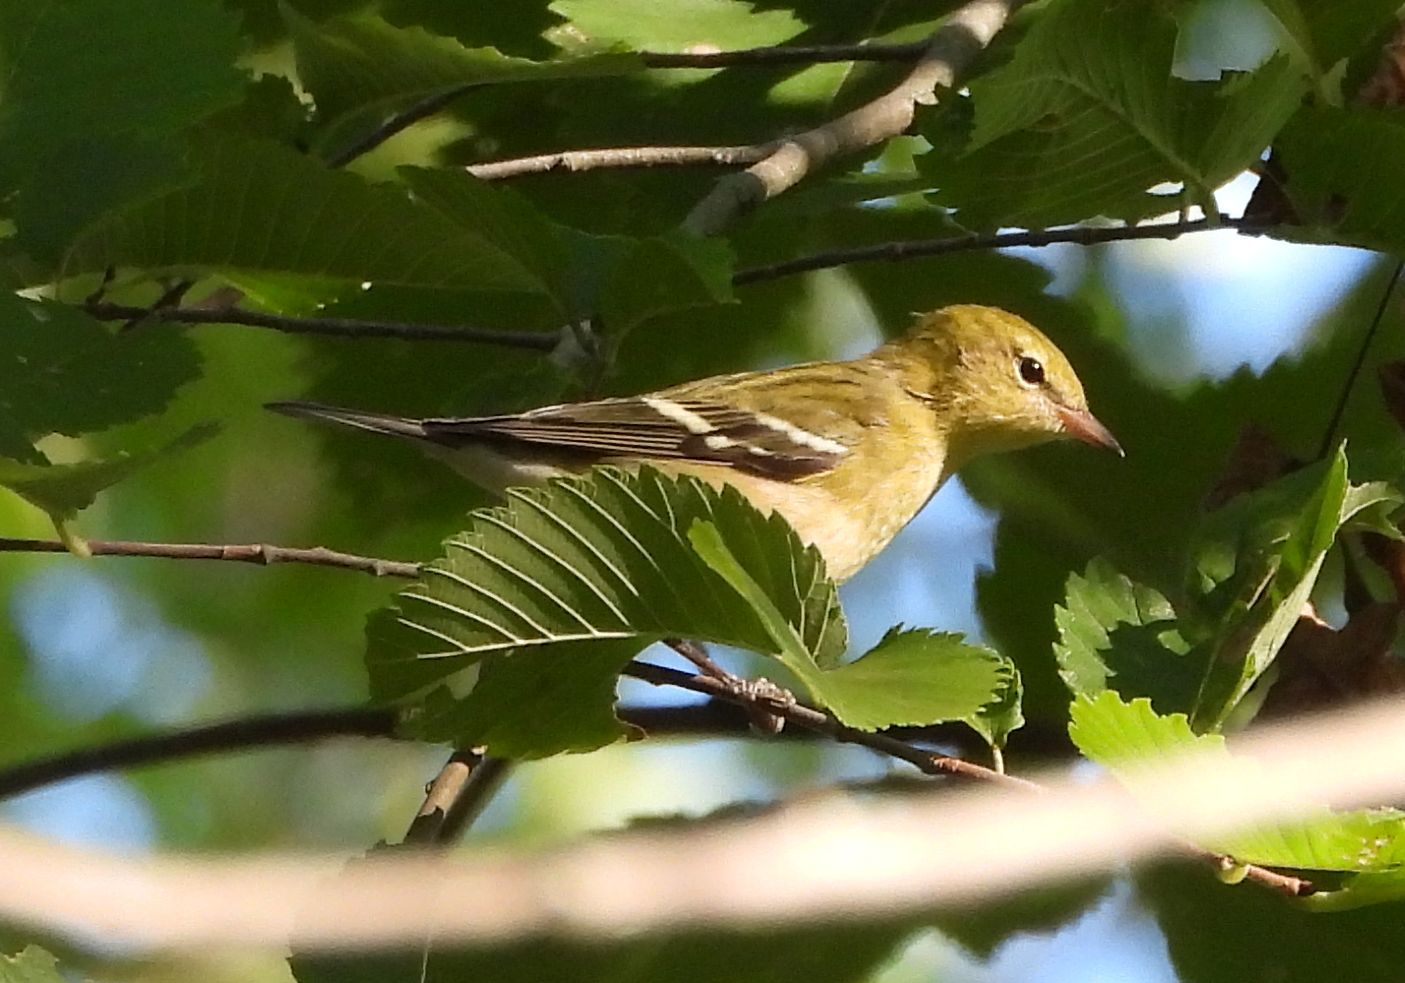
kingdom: Animalia
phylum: Chordata
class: Aves
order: Passeriformes
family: Parulidae
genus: Setophaga
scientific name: Setophaga castanea
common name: Bay-breasted warbler
